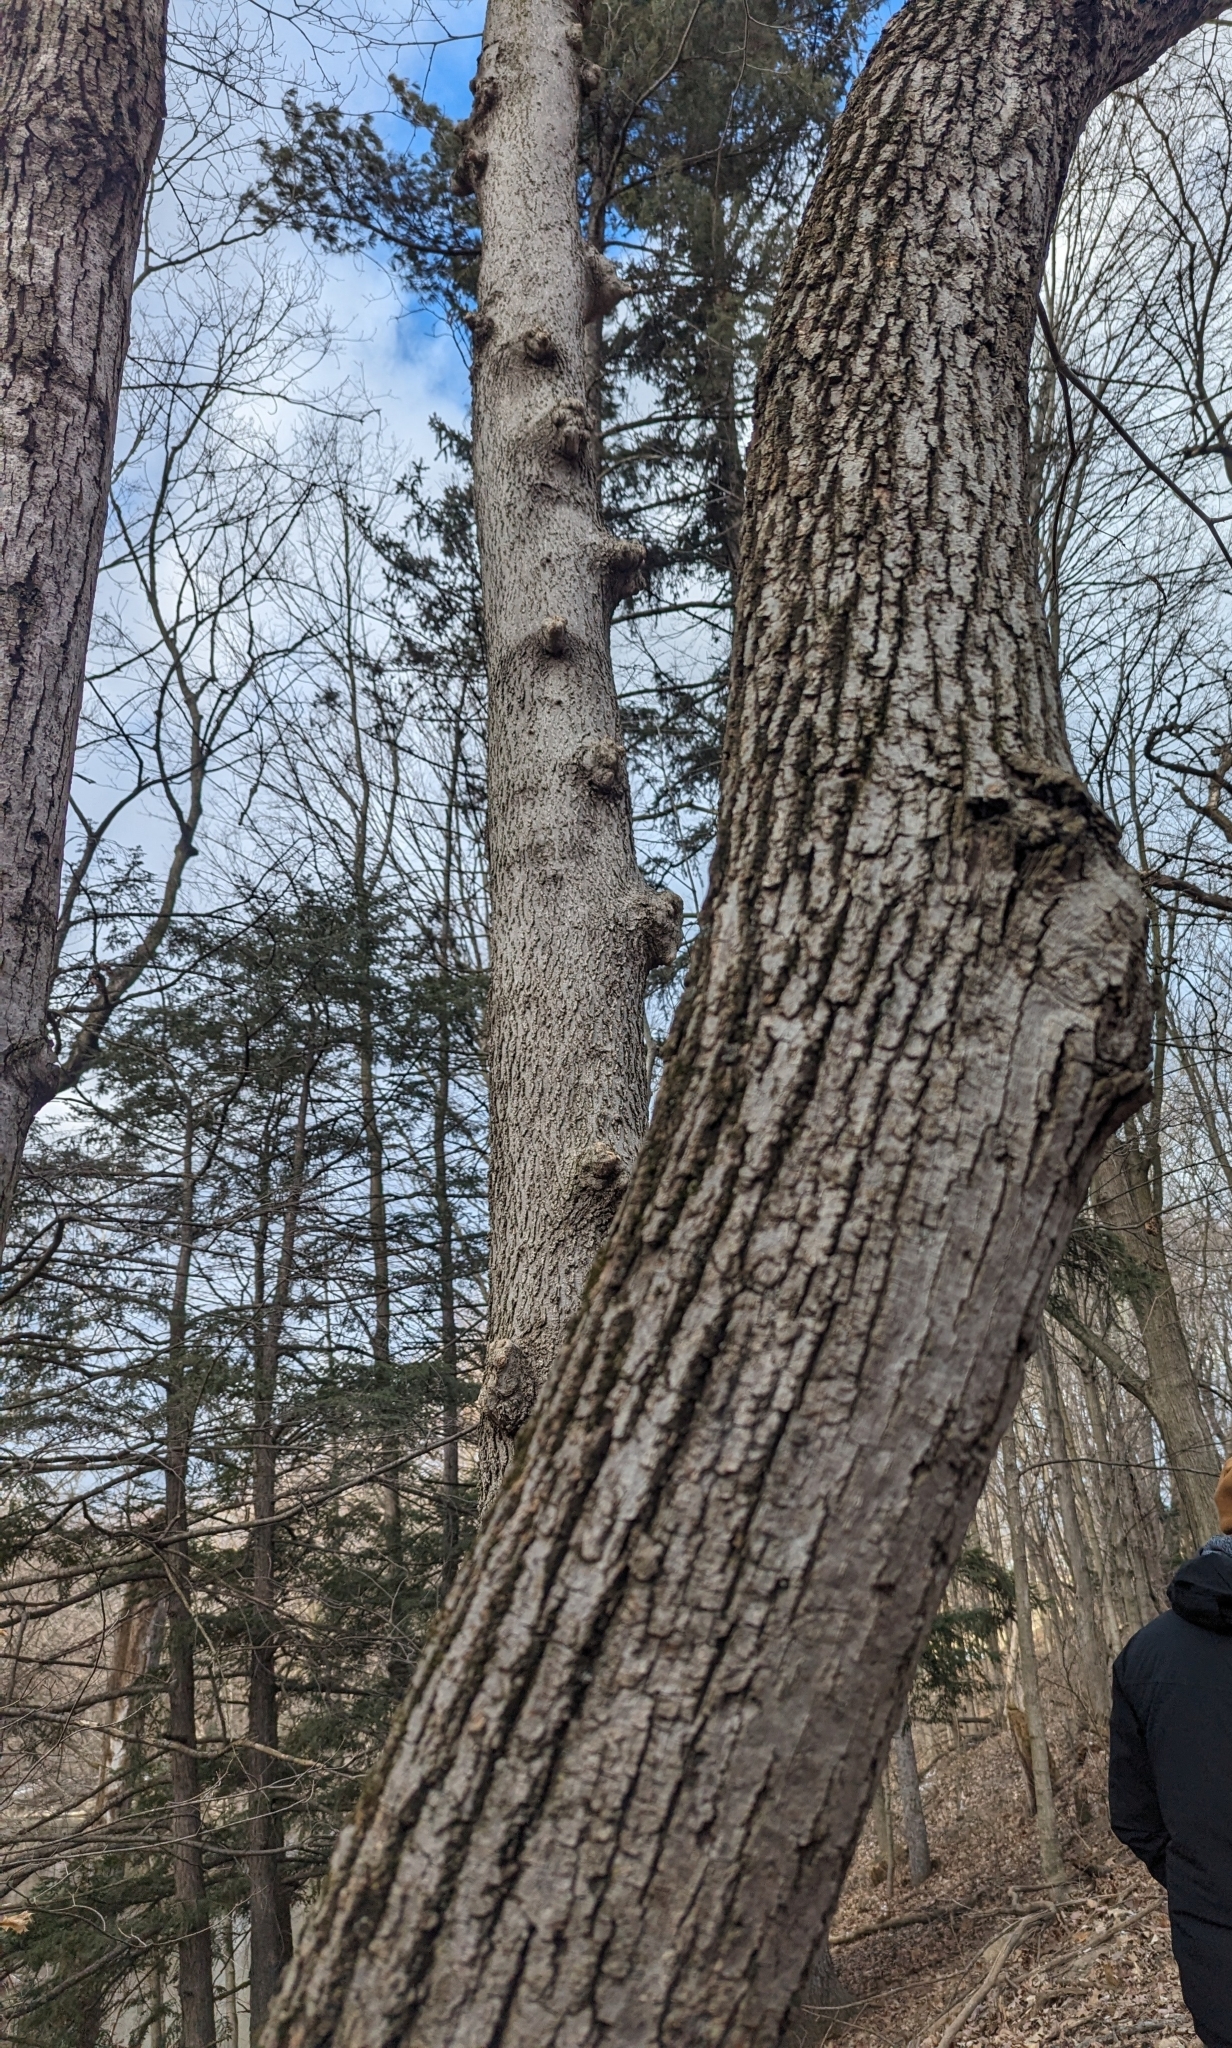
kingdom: Plantae
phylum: Tracheophyta
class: Magnoliopsida
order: Malvales
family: Malvaceae
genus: Tilia
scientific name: Tilia americana
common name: Basswood
